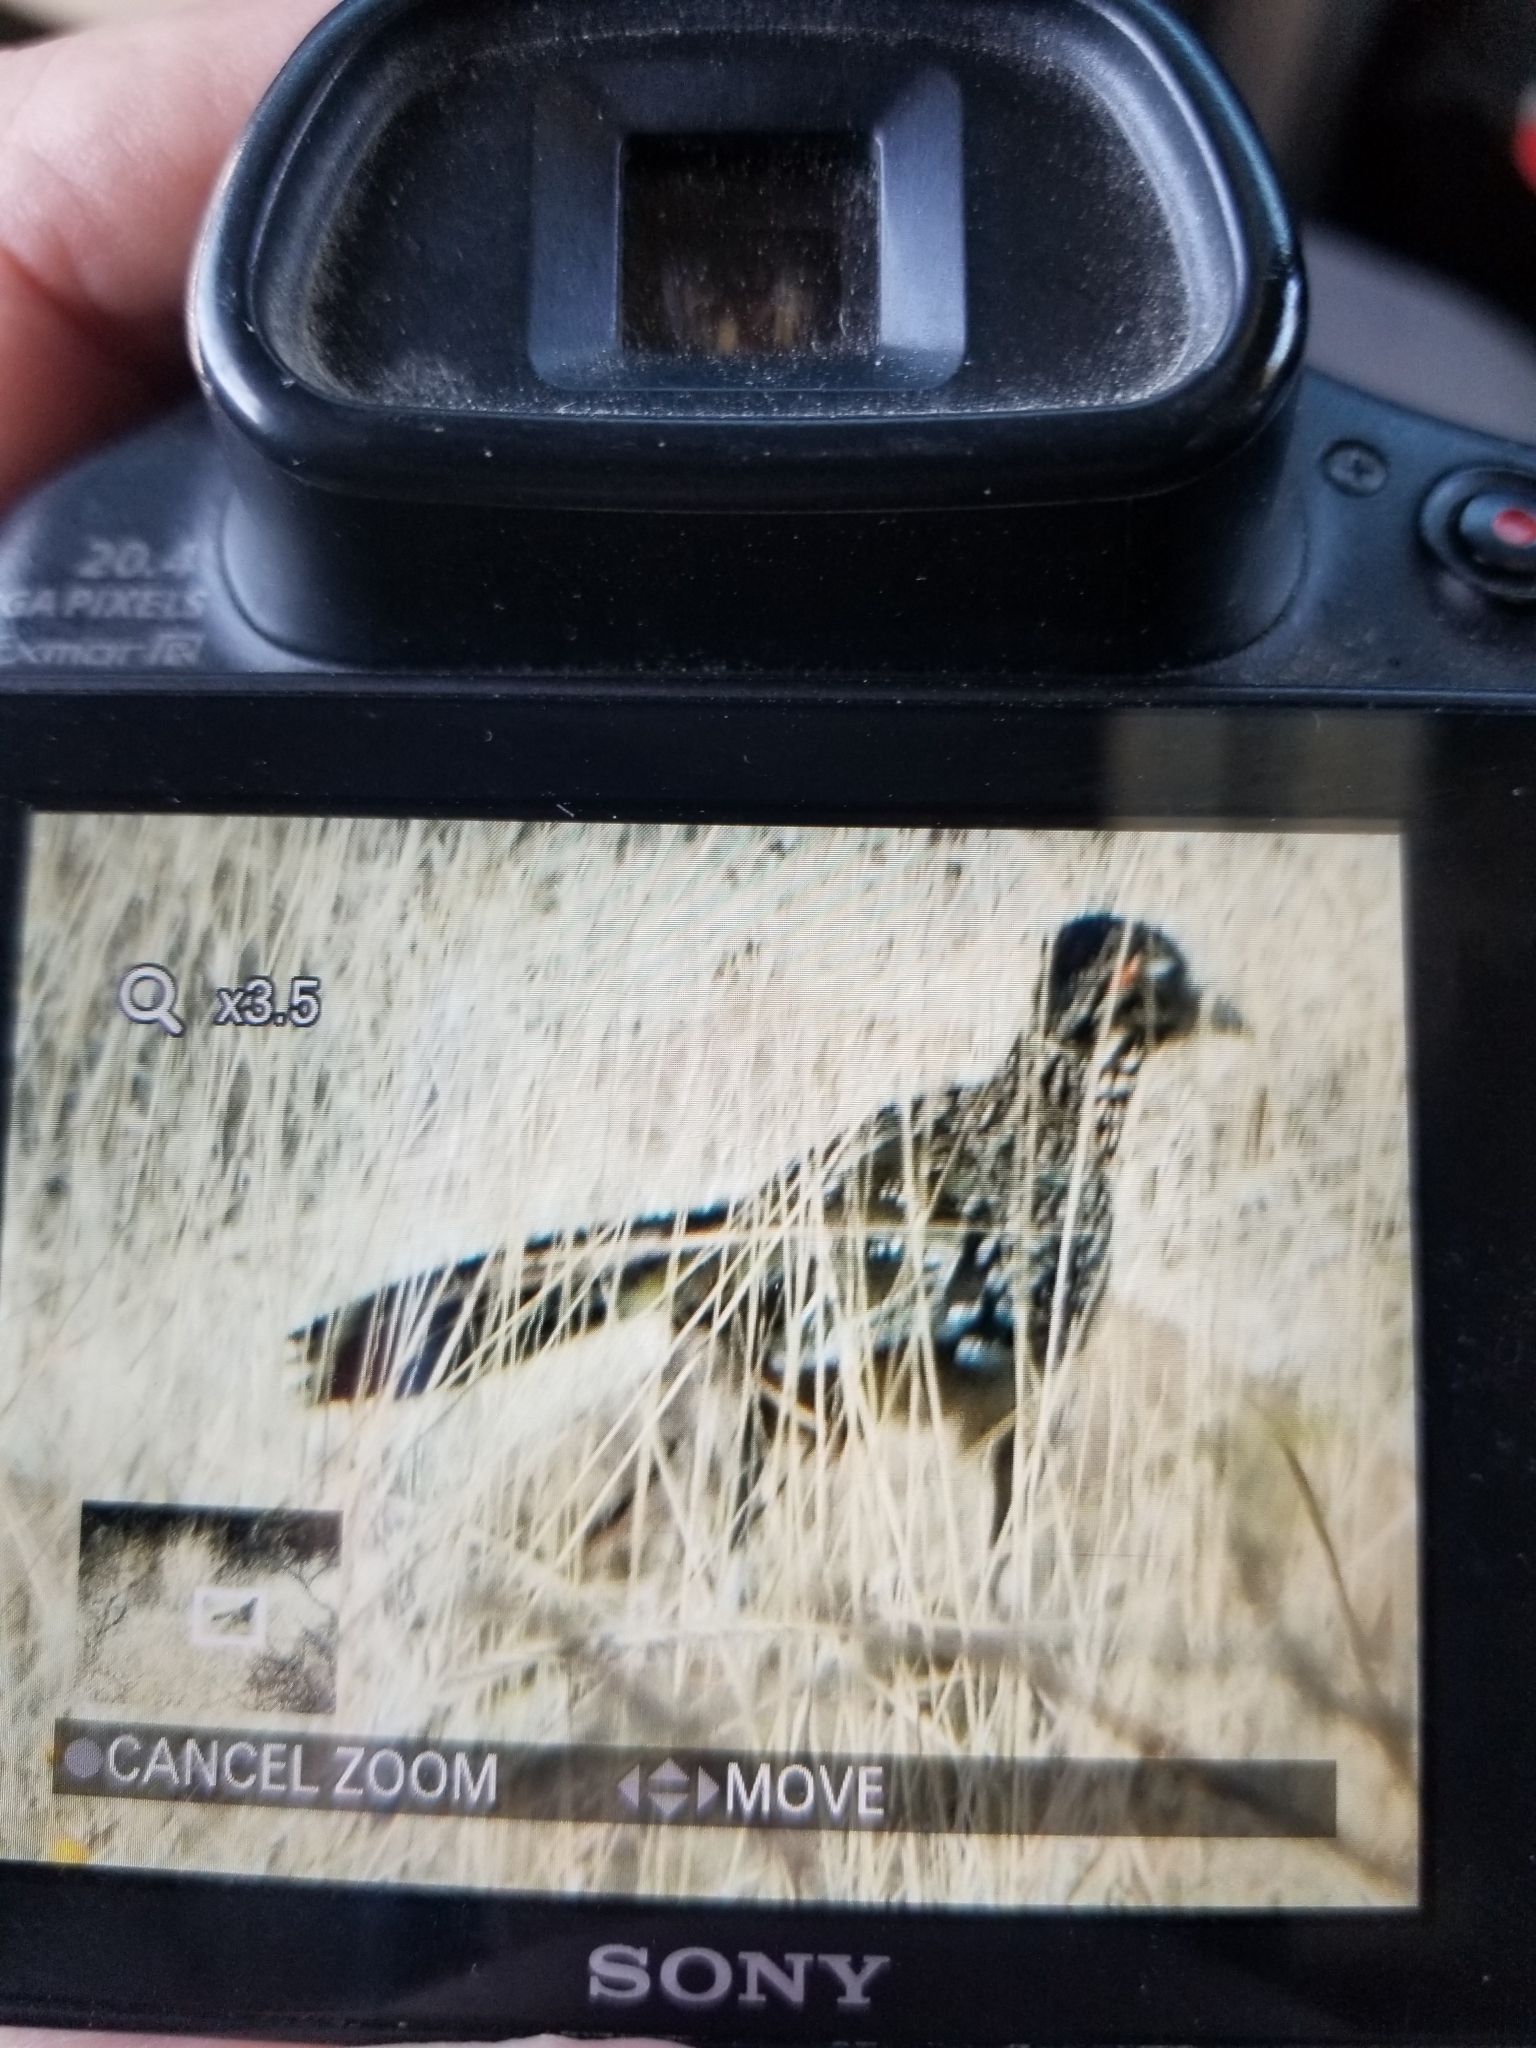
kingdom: Animalia
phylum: Chordata
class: Aves
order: Cuculiformes
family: Cuculidae
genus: Geococcyx
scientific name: Geococcyx californianus
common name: Greater roadrunner
